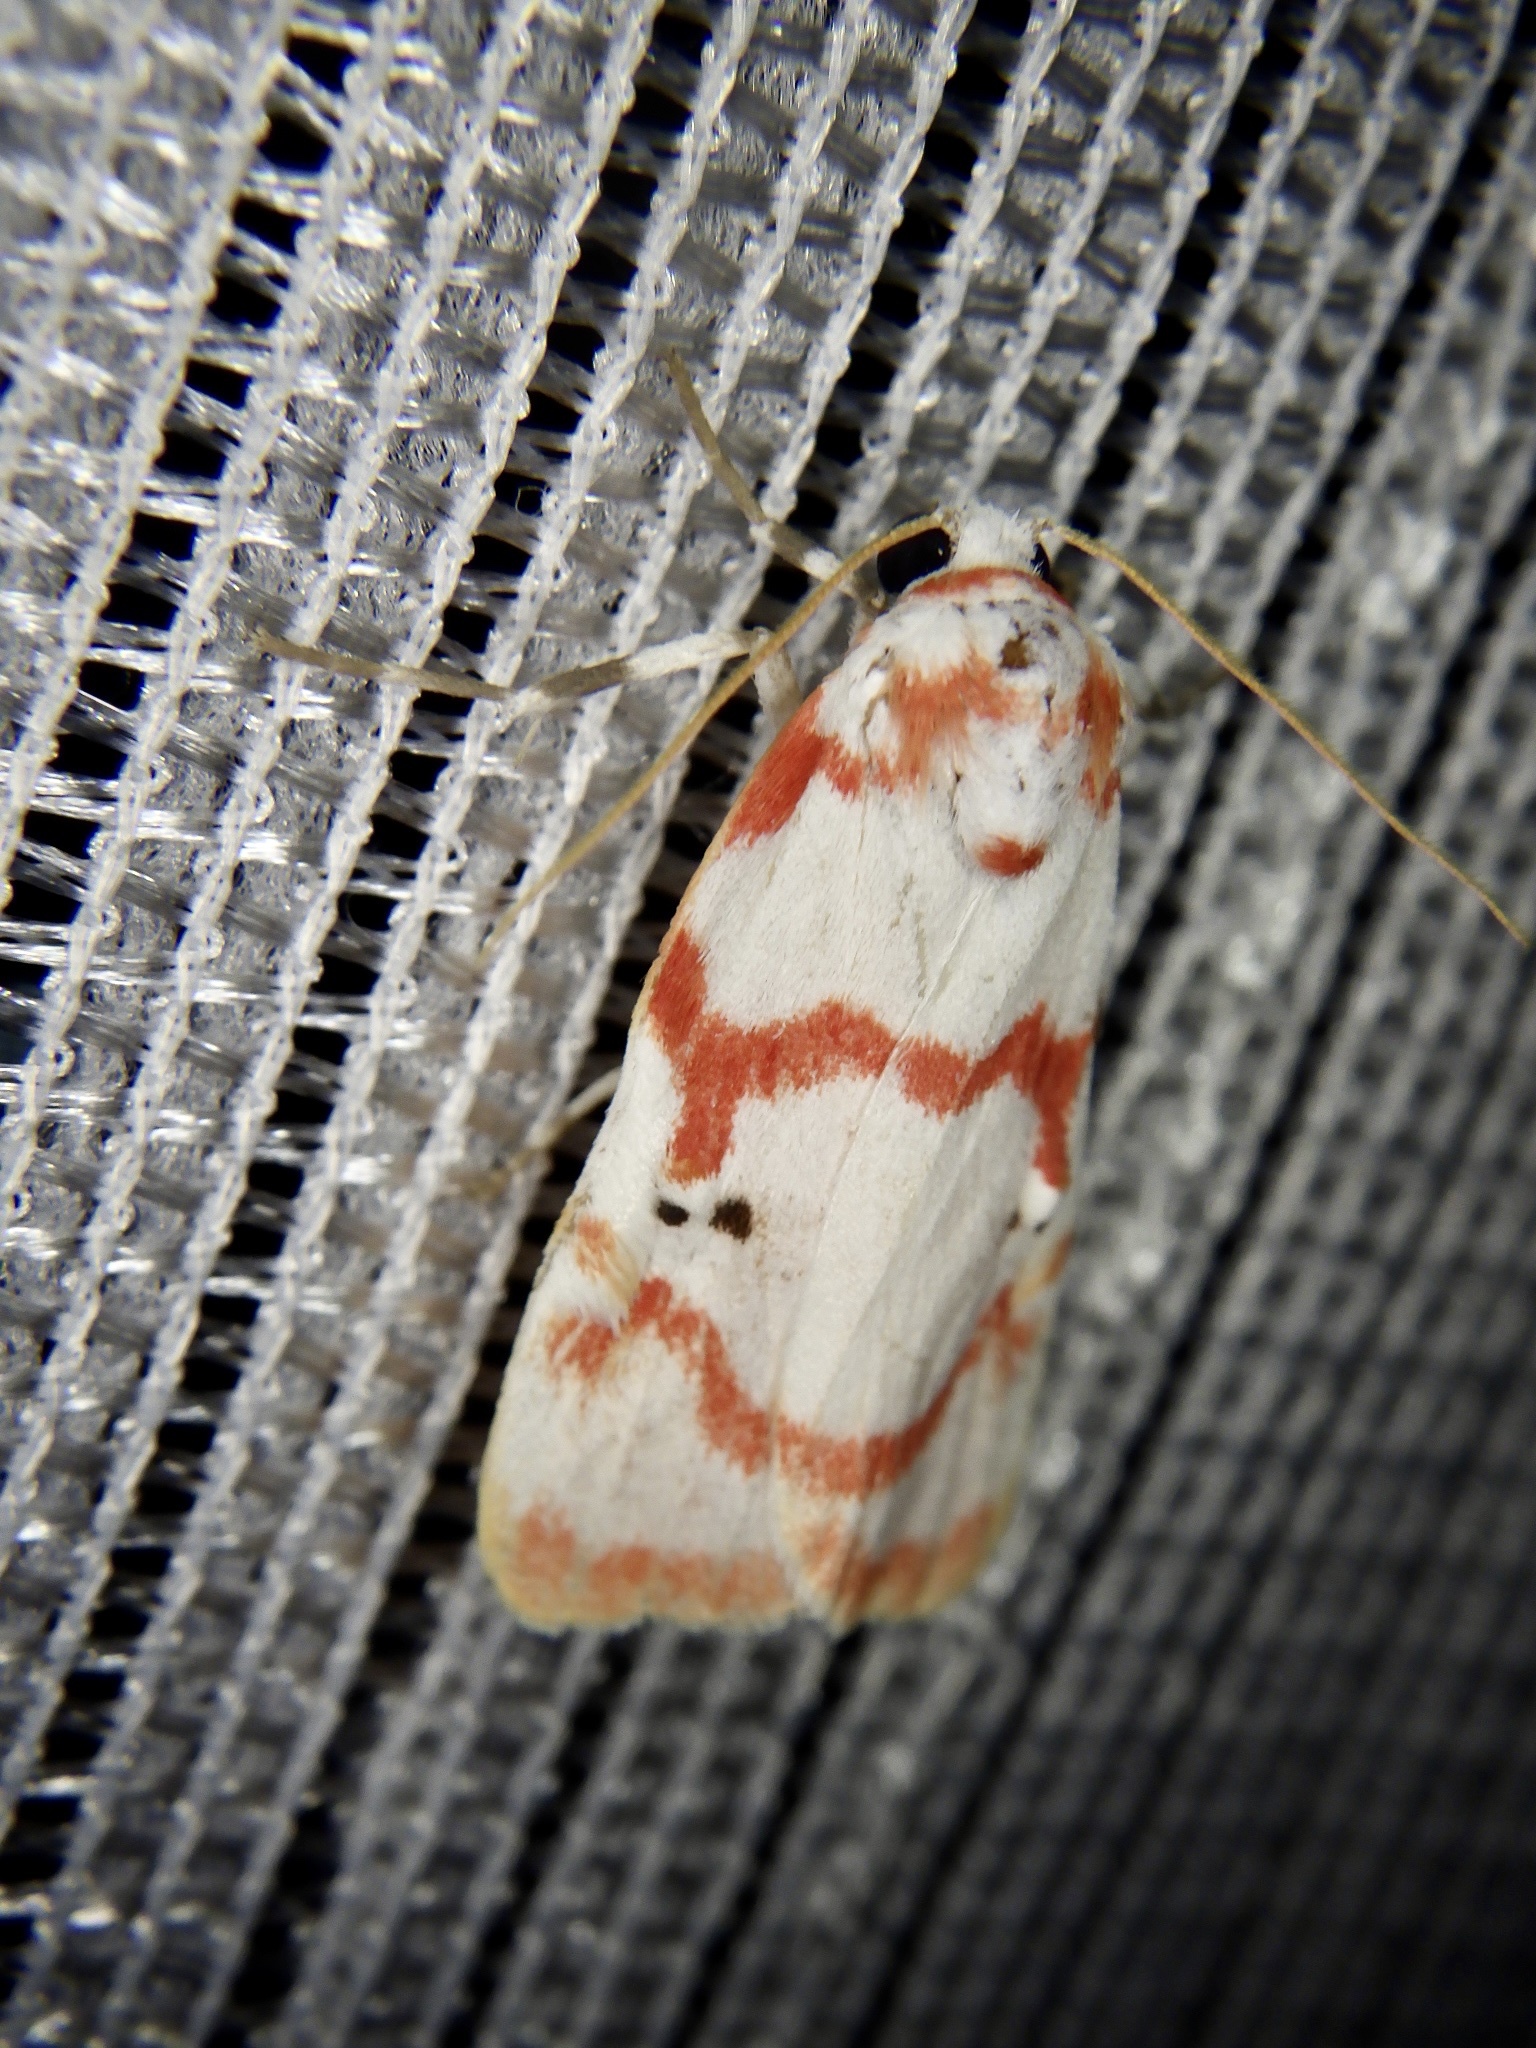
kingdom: Animalia
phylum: Arthropoda
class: Insecta
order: Lepidoptera
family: Erebidae
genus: Cyana
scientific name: Cyana hamata
